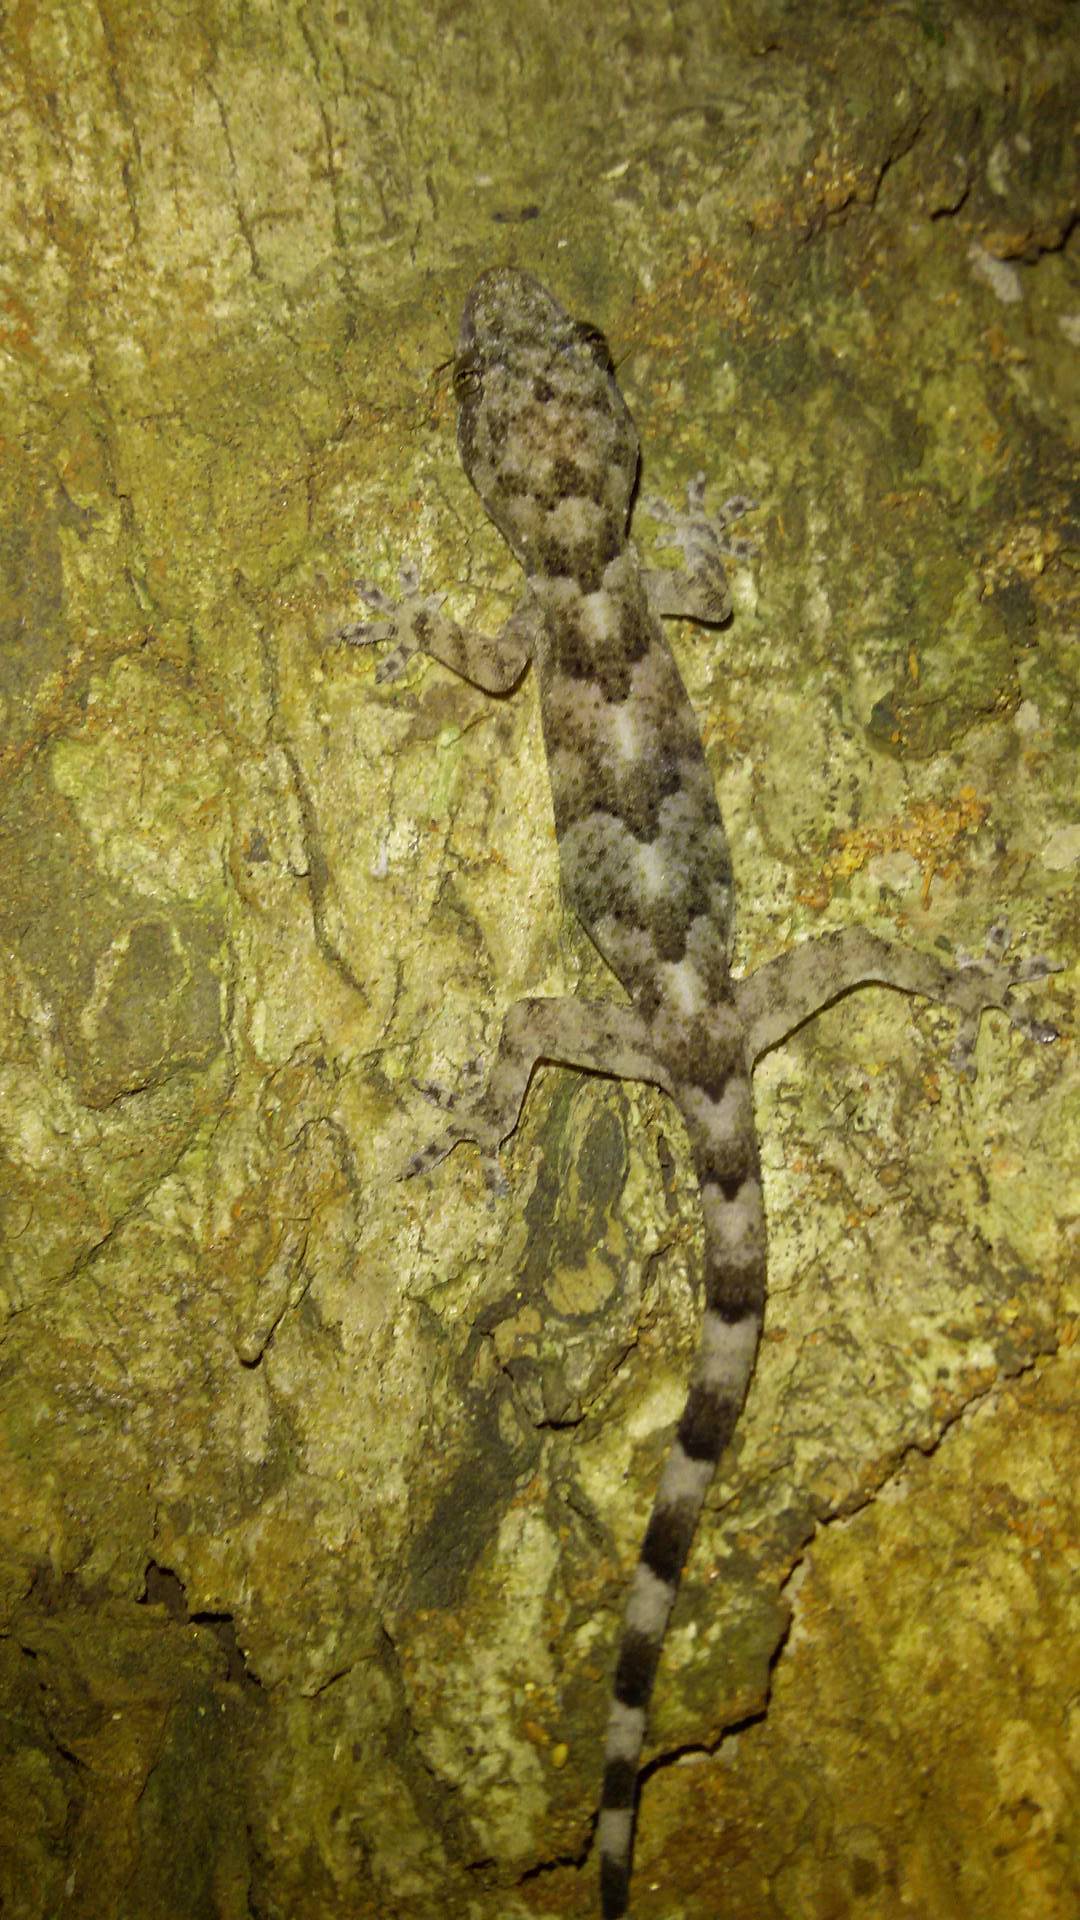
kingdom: Animalia
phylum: Chordata
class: Squamata
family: Gekkonidae
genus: Hemidactylus
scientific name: Hemidactylus mabouia
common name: House gecko
